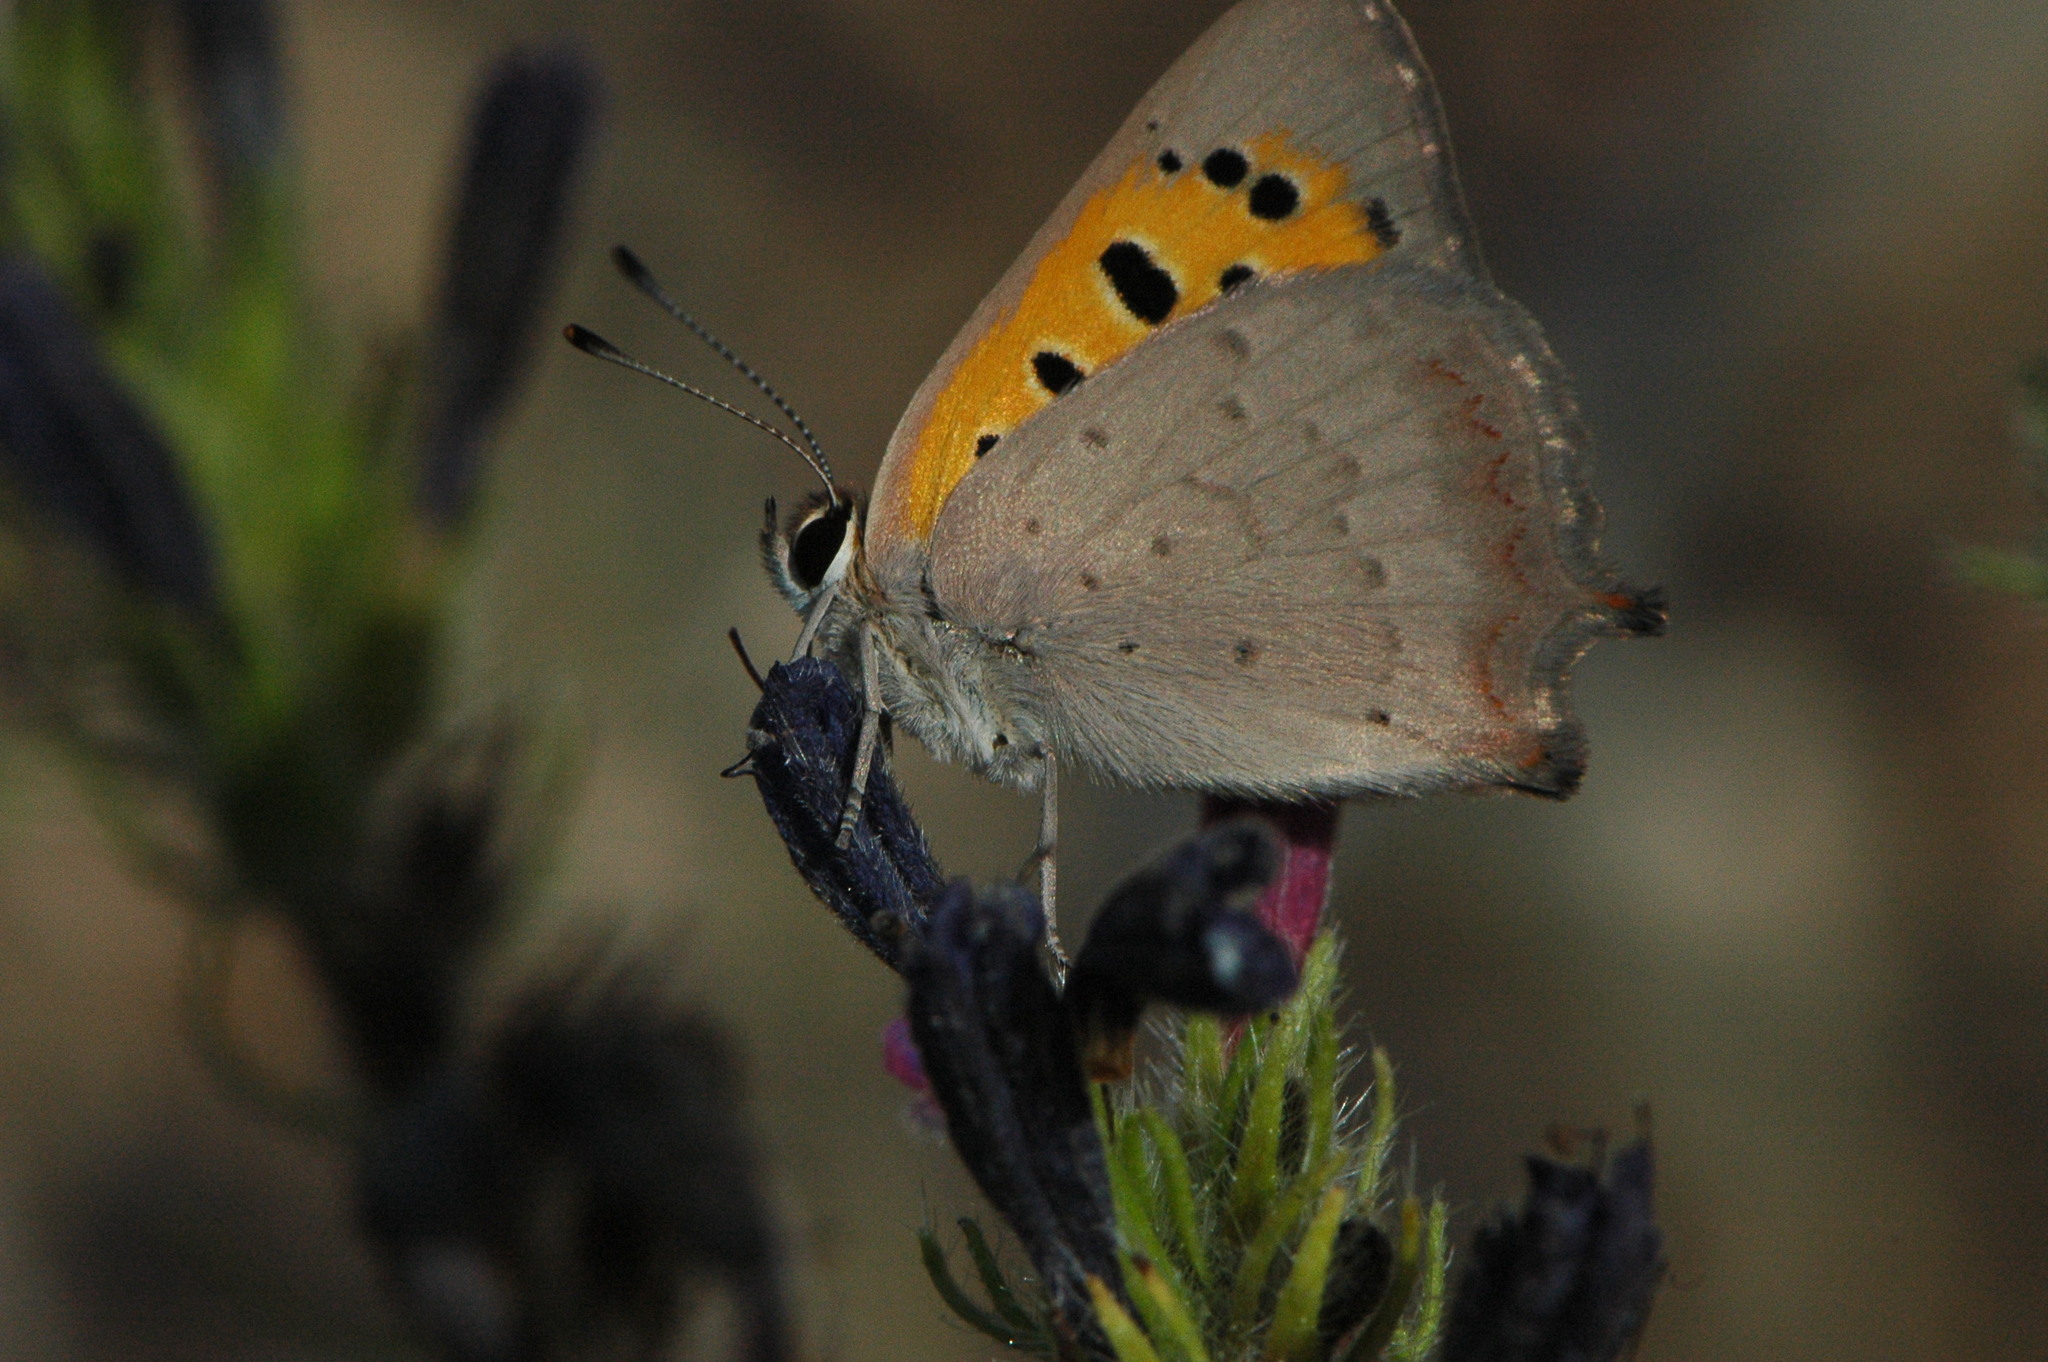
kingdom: Animalia
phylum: Arthropoda
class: Insecta
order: Lepidoptera
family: Lycaenidae
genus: Lycaena
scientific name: Lycaena phlaeas
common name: Small copper
